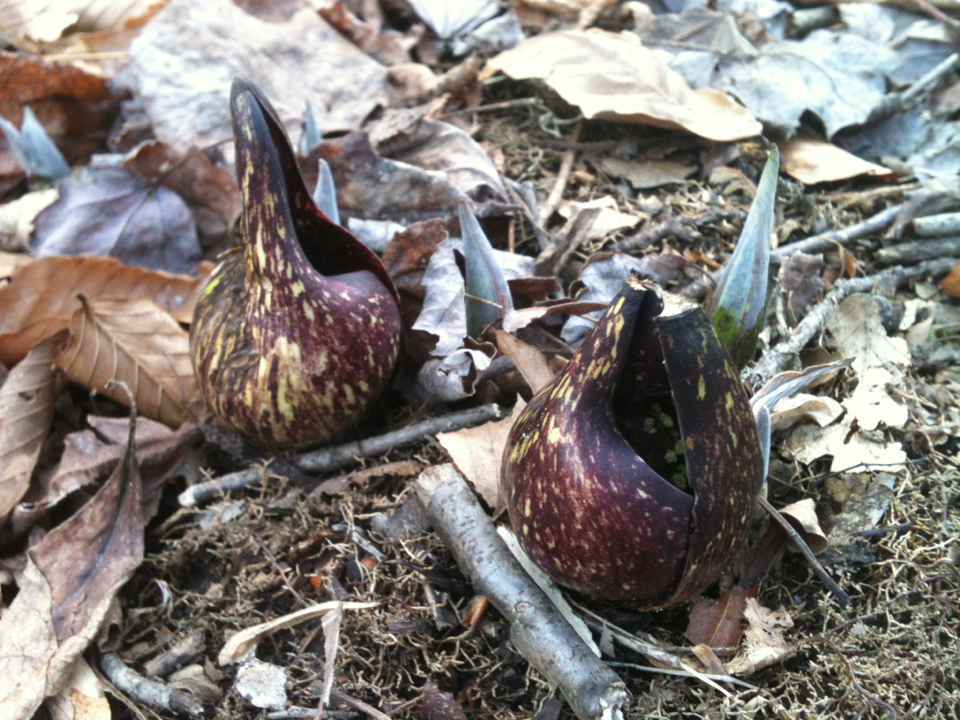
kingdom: Plantae
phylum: Tracheophyta
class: Liliopsida
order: Alismatales
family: Araceae
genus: Symplocarpus
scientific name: Symplocarpus foetidus
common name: Eastern skunk cabbage
